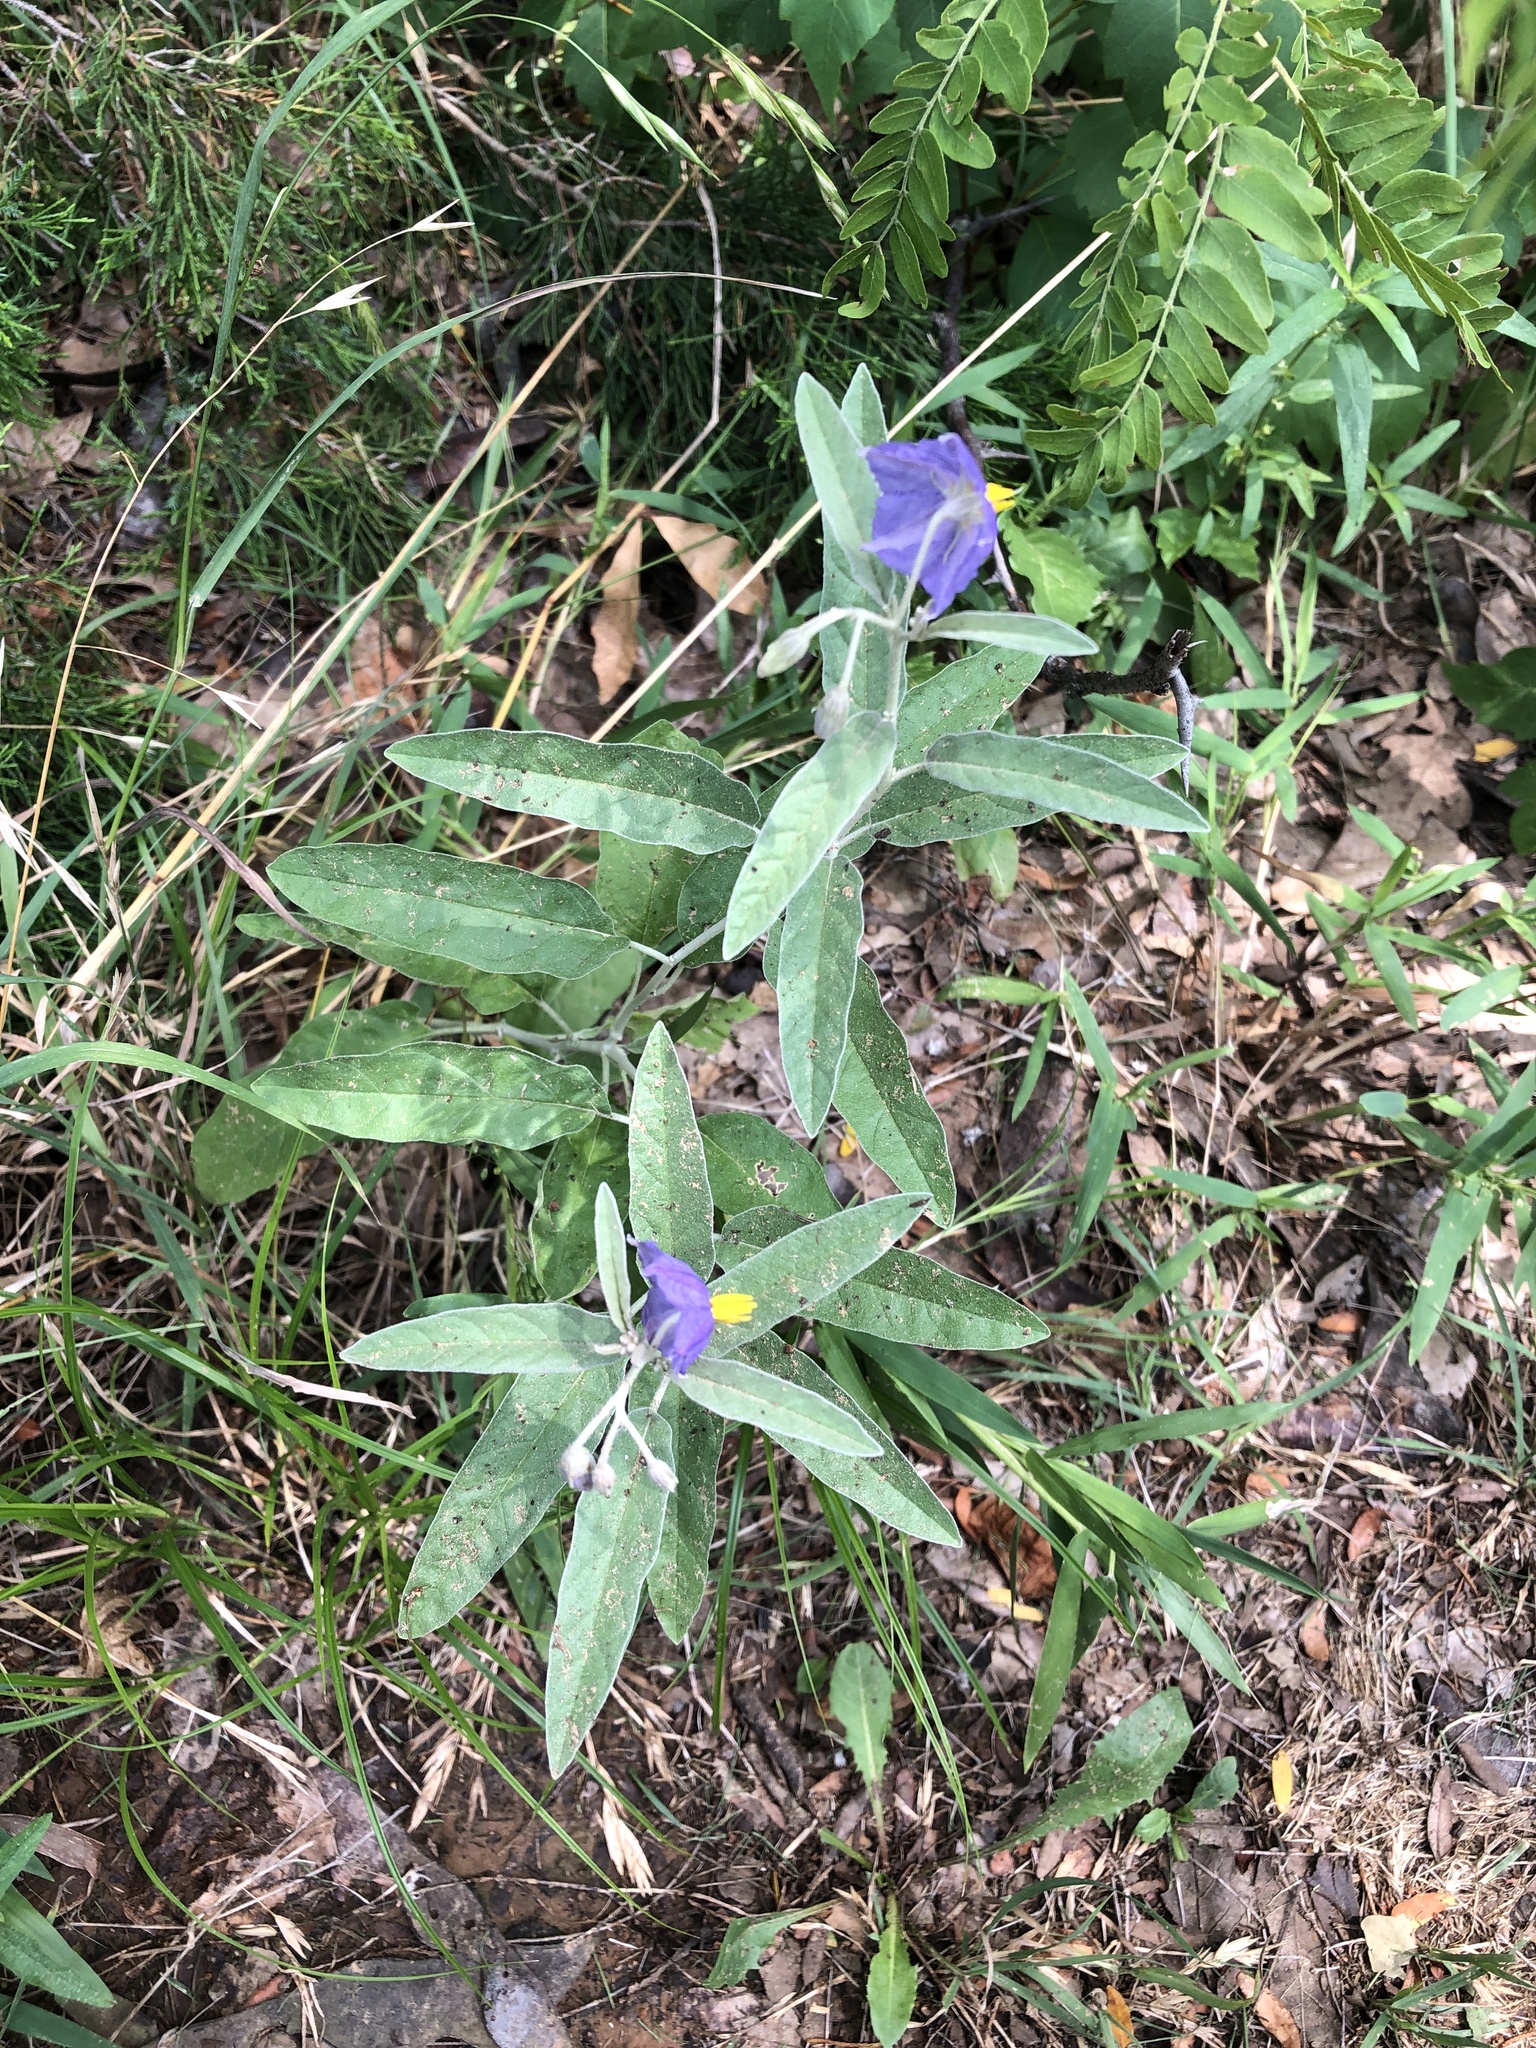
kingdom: Plantae
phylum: Tracheophyta
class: Magnoliopsida
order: Solanales
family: Solanaceae
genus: Solanum
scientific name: Solanum elaeagnifolium
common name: Silverleaf nightshade
